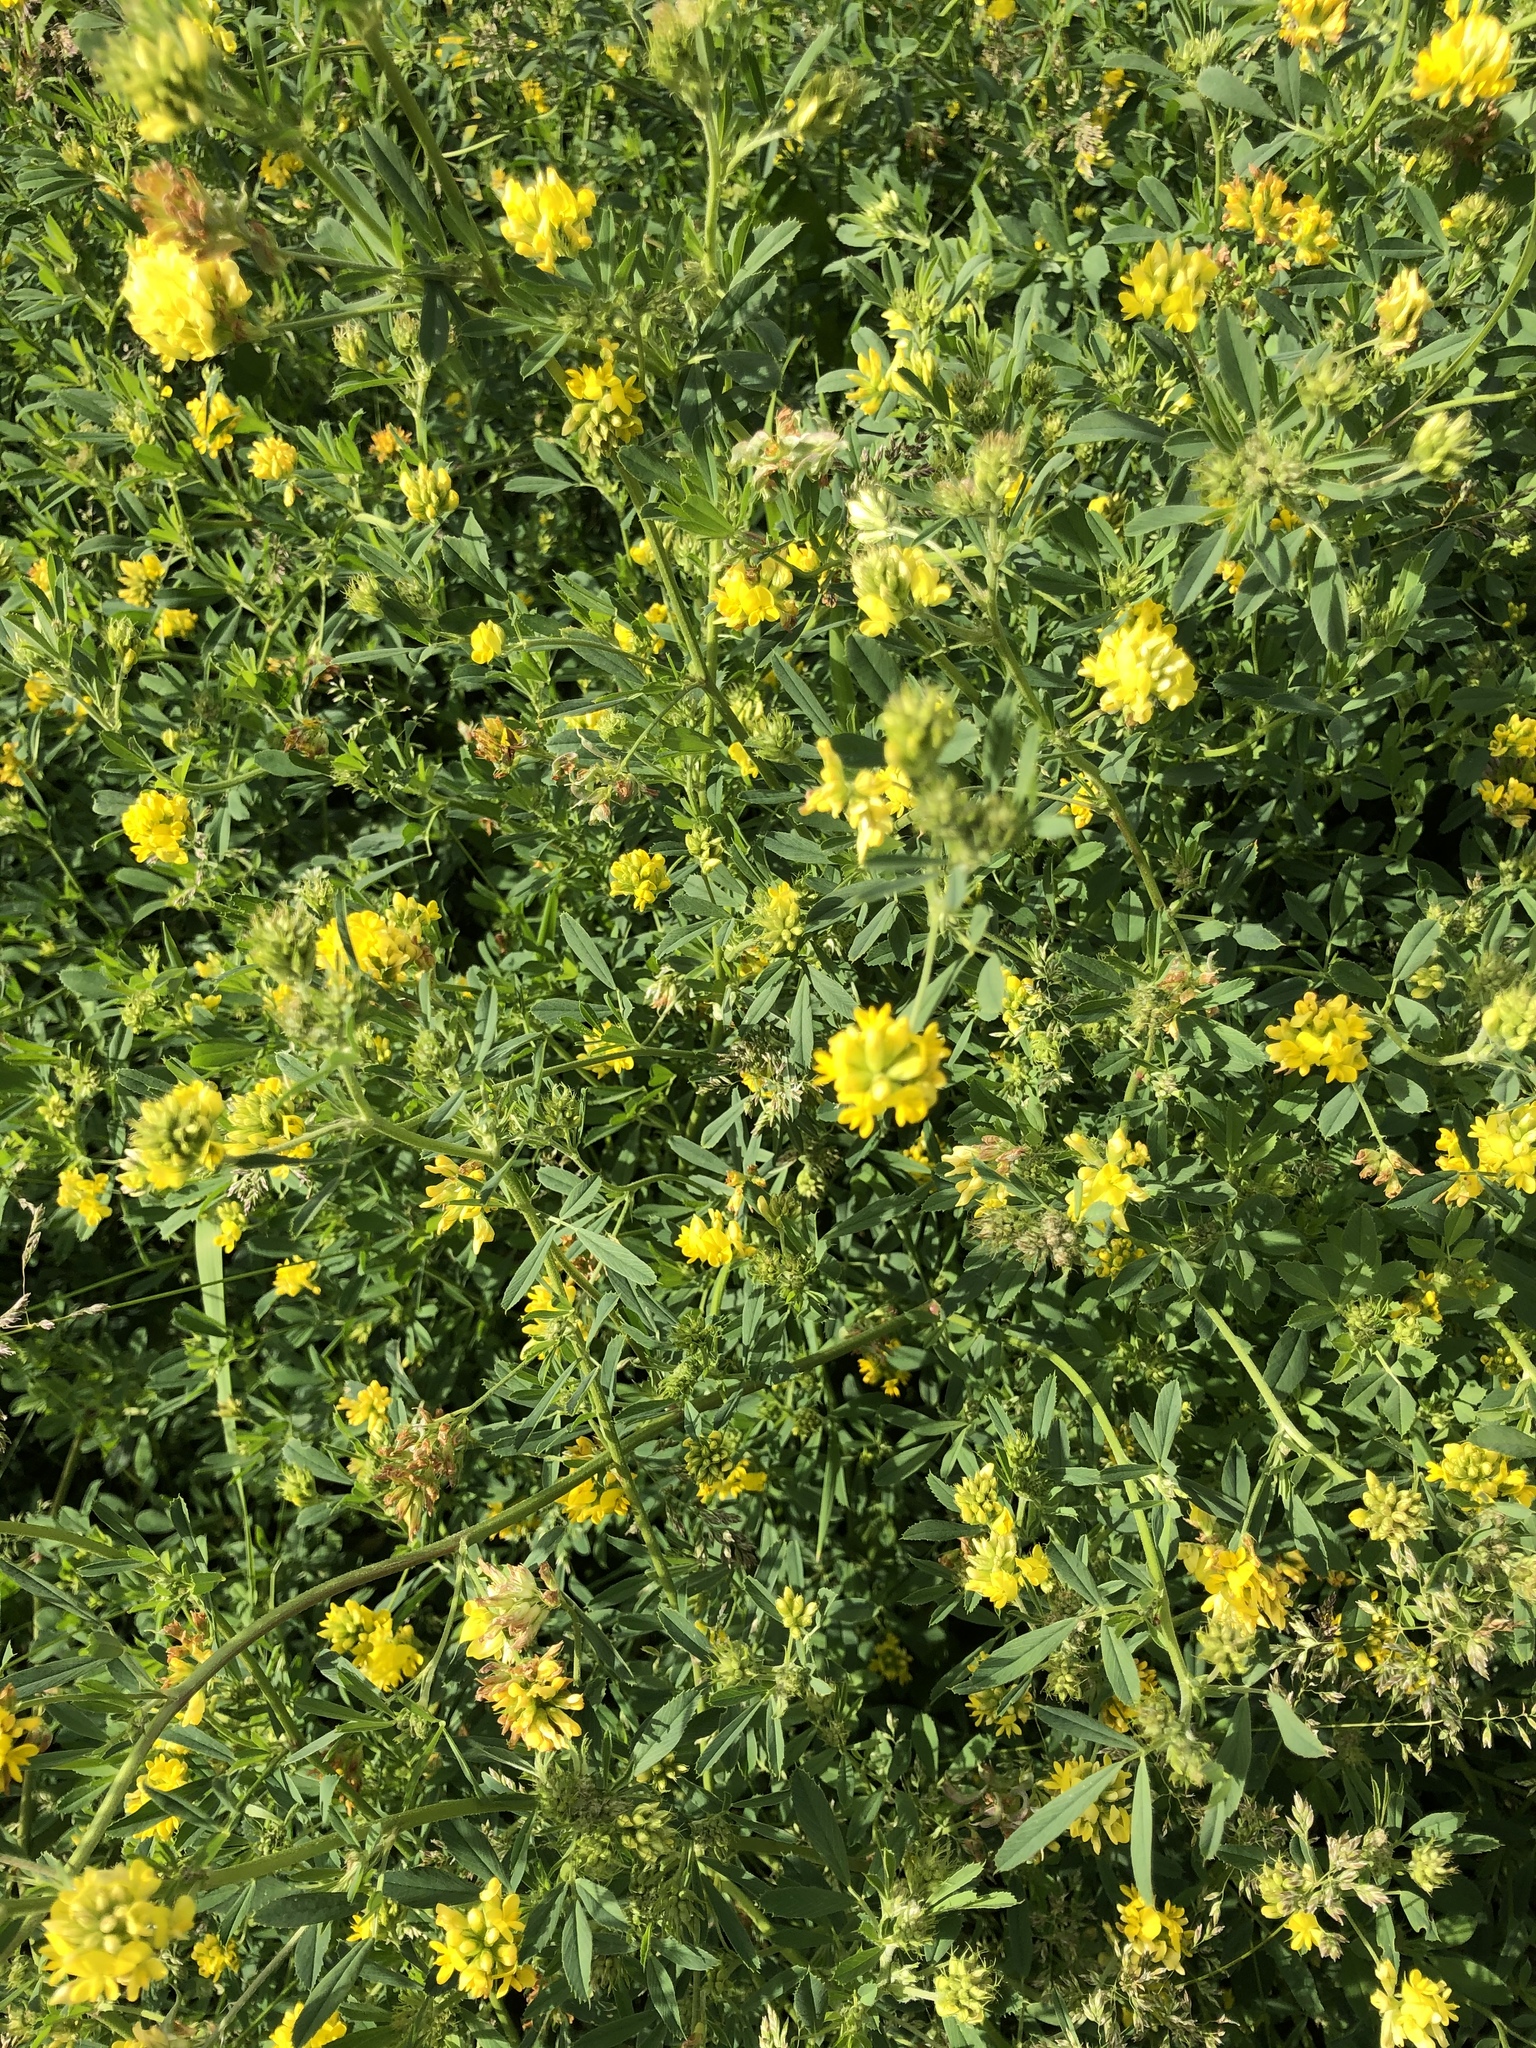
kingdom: Plantae
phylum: Tracheophyta
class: Magnoliopsida
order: Fabales
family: Fabaceae
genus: Medicago
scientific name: Medicago falcata
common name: Sickle medick
